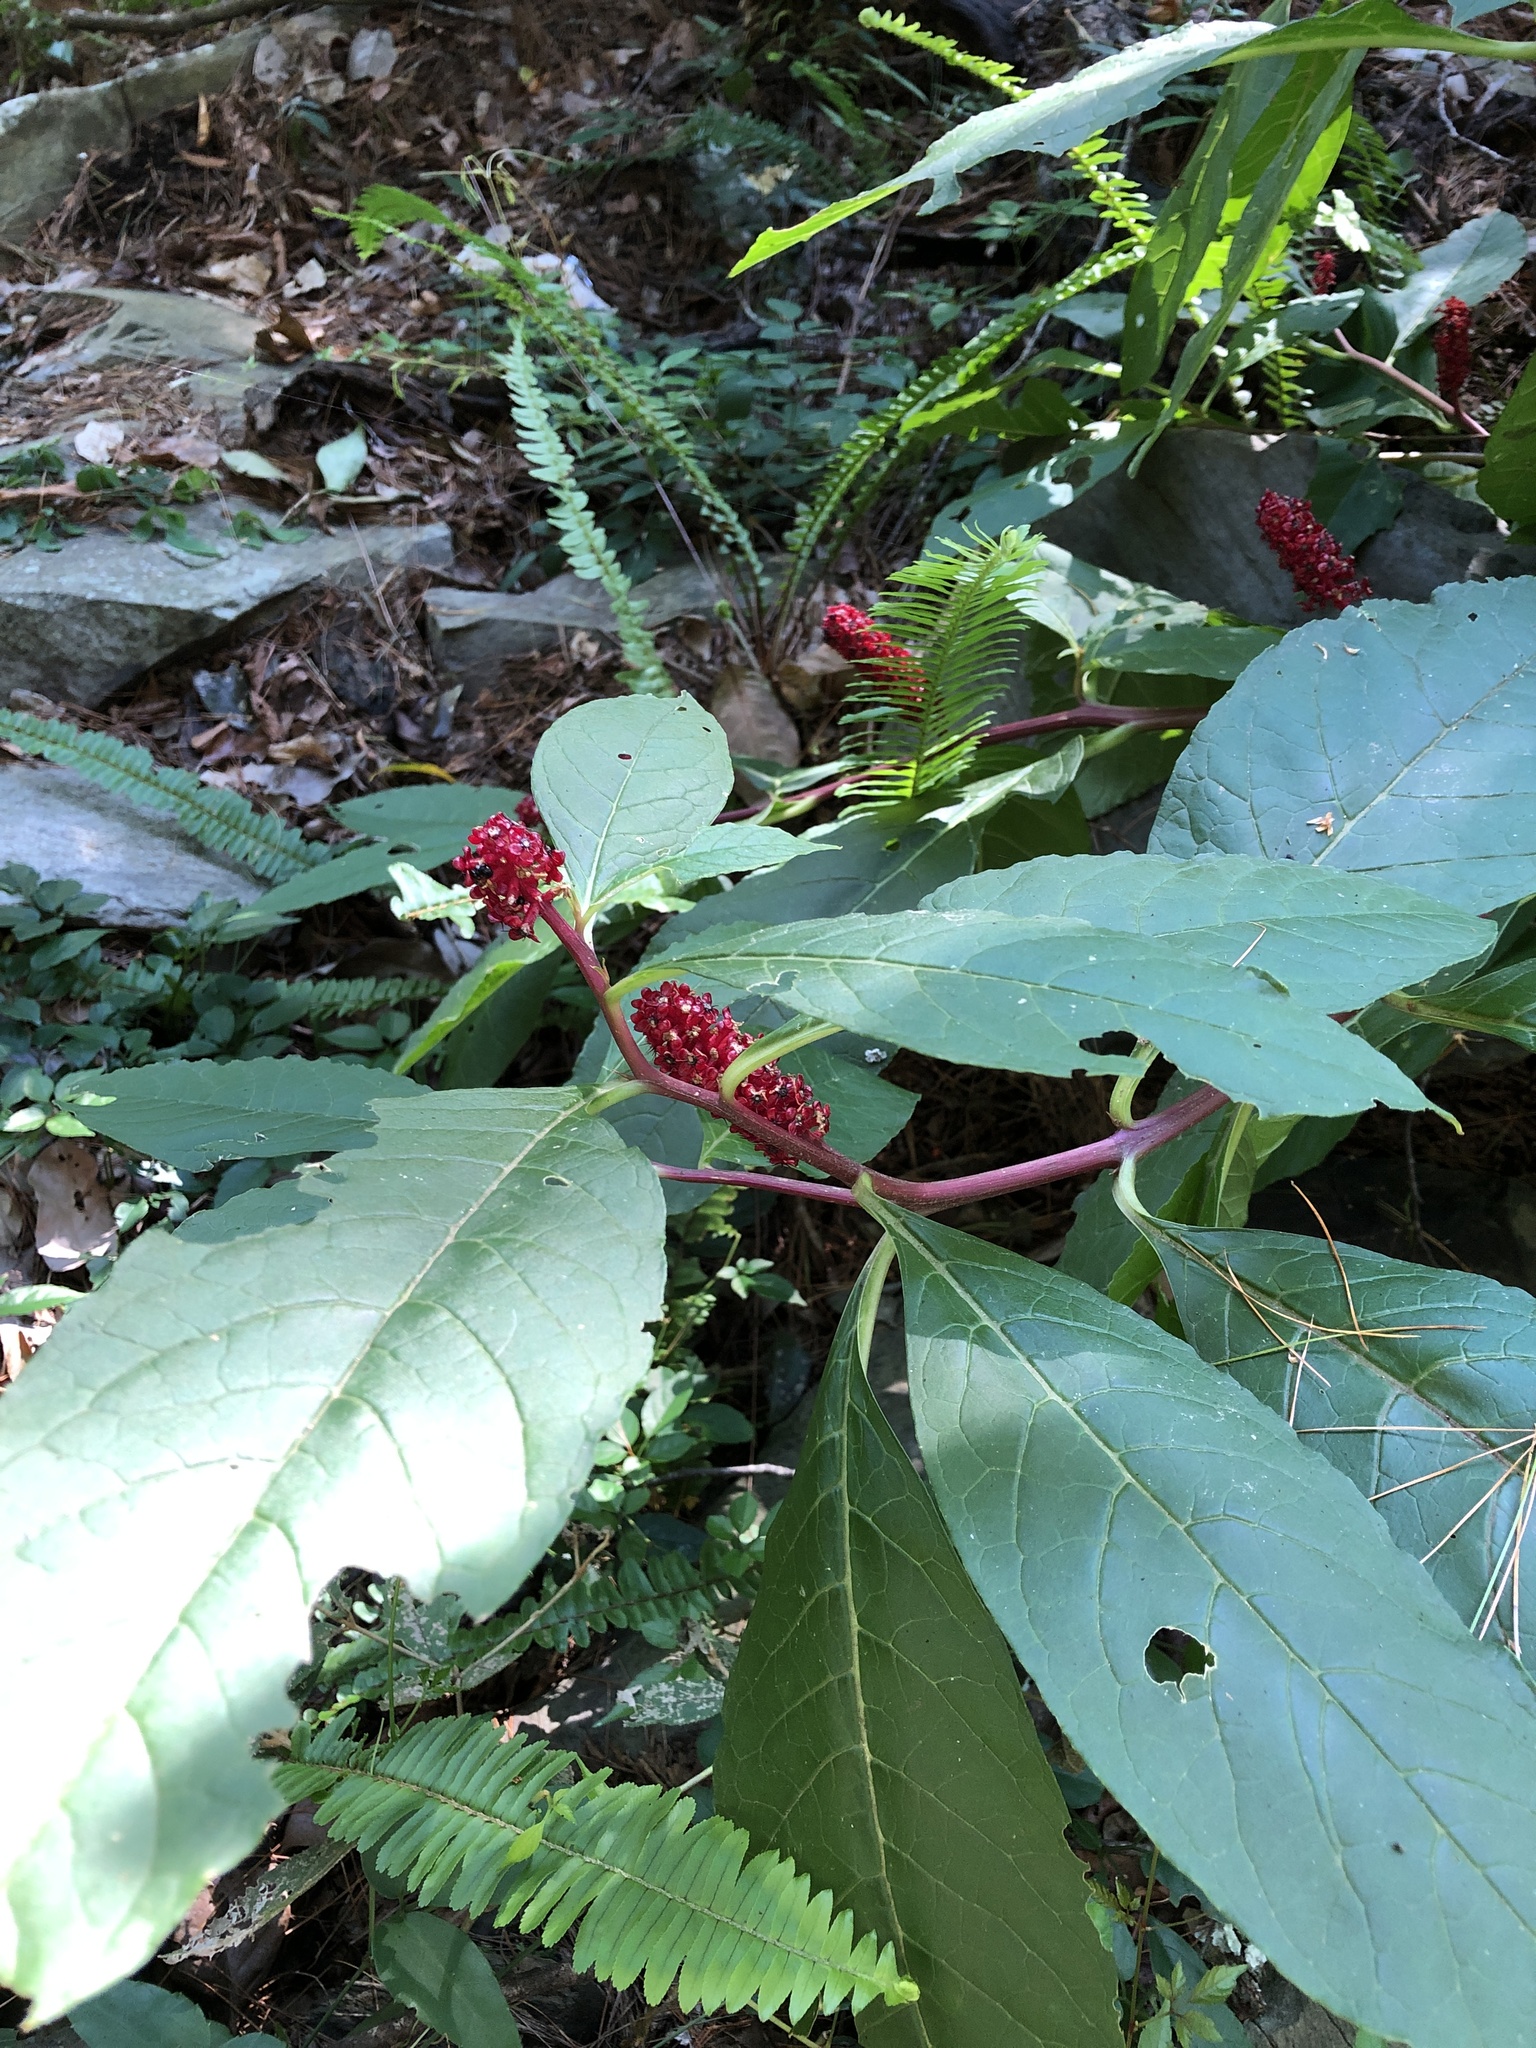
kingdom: Plantae
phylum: Tracheophyta
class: Magnoliopsida
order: Caryophyllales
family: Phytolaccaceae
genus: Phytolacca
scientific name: Phytolacca japonica
